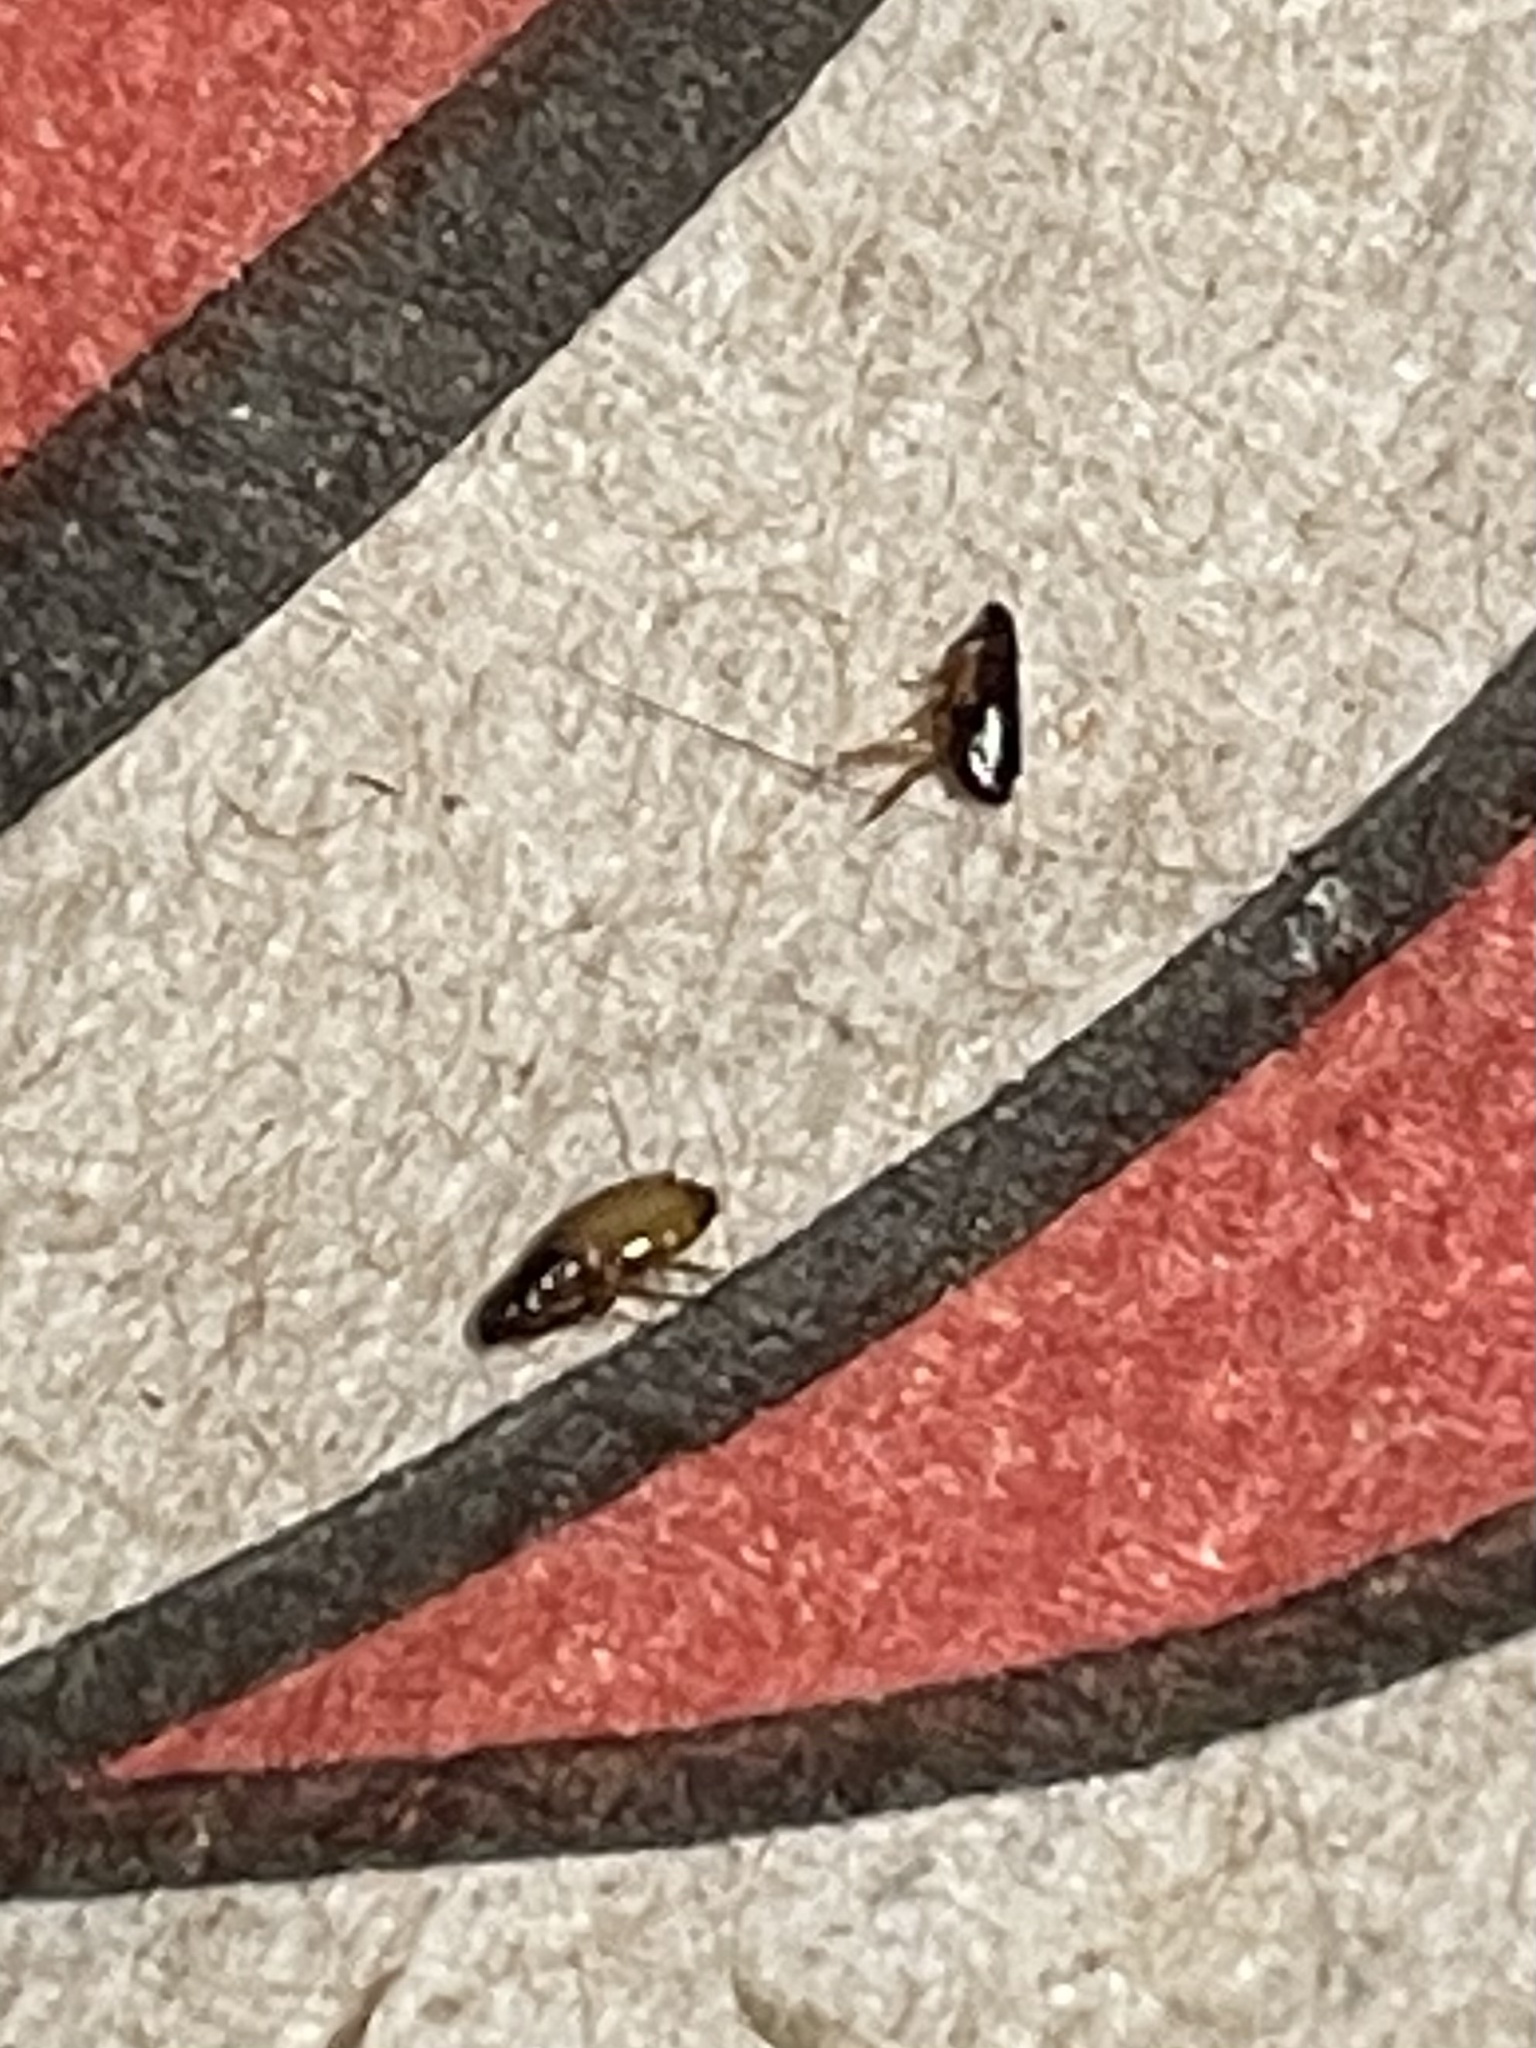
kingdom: Animalia
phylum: Arthropoda
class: Insecta
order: Siphonaptera
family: Pulicidae
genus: Ctenocephalides
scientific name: Ctenocephalides felis
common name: Cat flea
